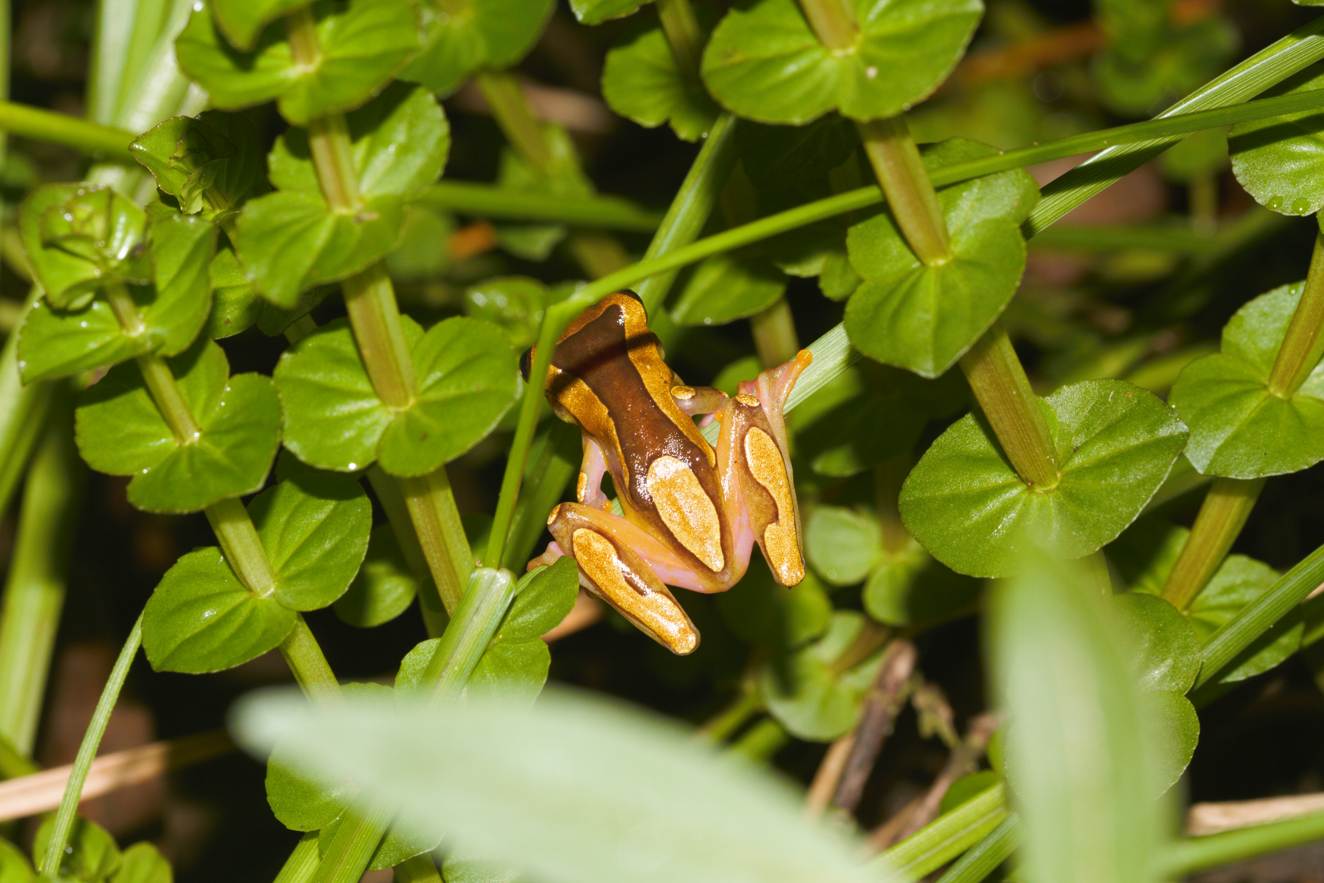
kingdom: Animalia
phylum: Chordata
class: Amphibia
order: Anura
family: Hylidae
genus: Dendropsophus
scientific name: Dendropsophus leucophyllatus
